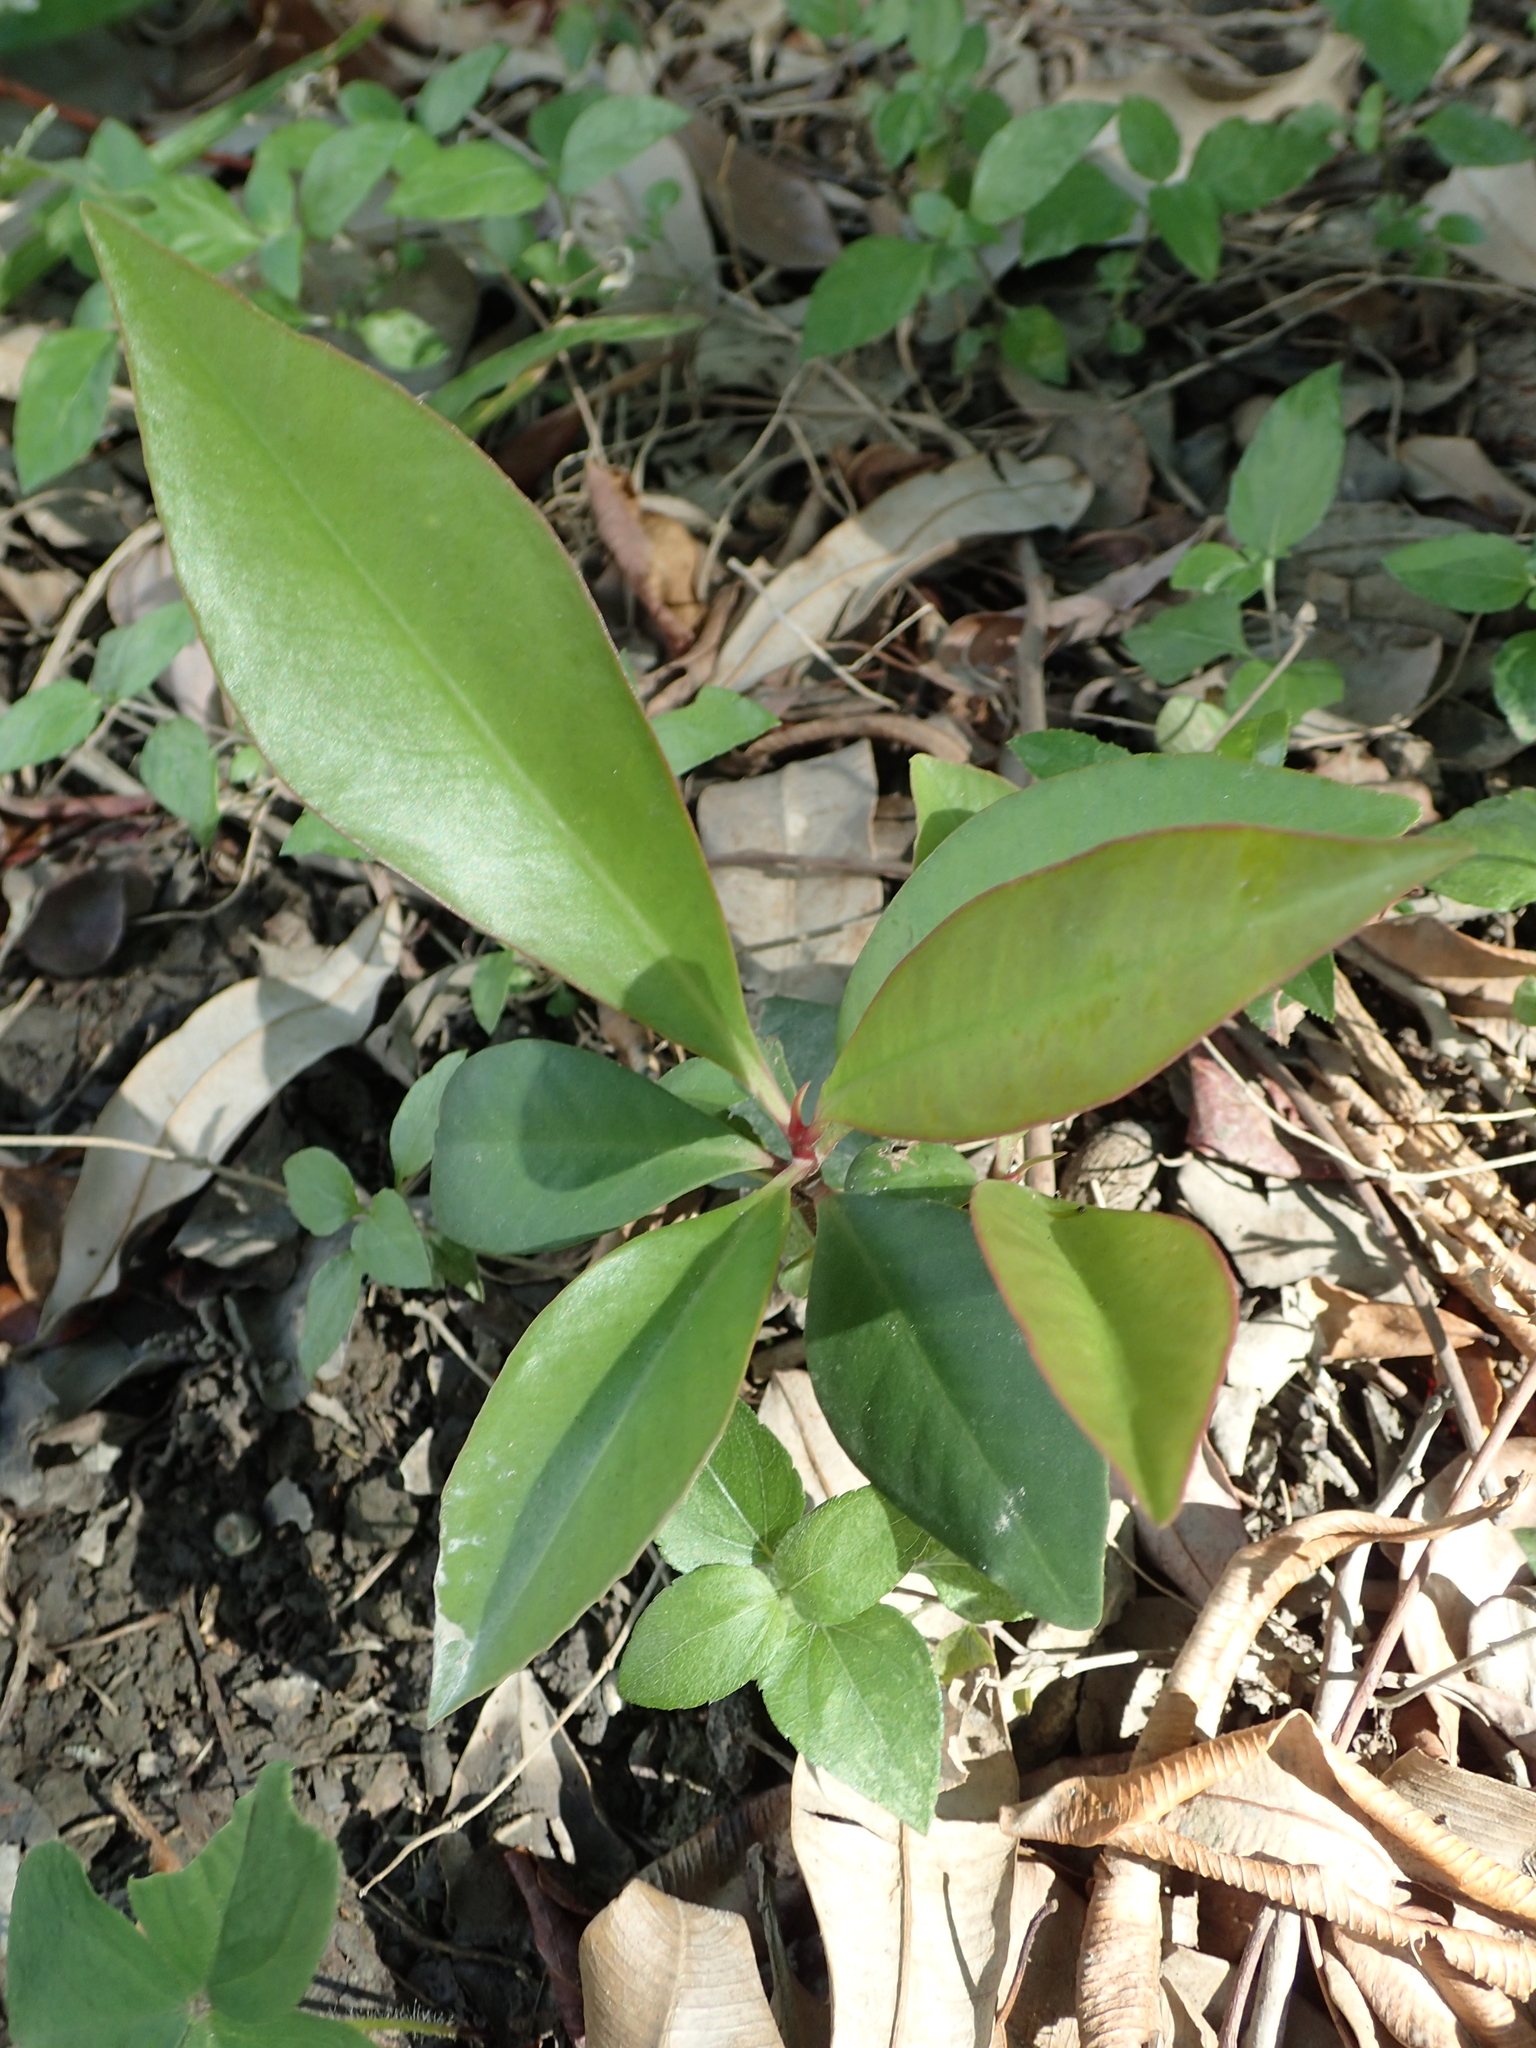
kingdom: Plantae
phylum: Tracheophyta
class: Magnoliopsida
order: Ericales
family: Primulaceae
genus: Ardisia
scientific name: Ardisia elliptica
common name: Shoebutton
